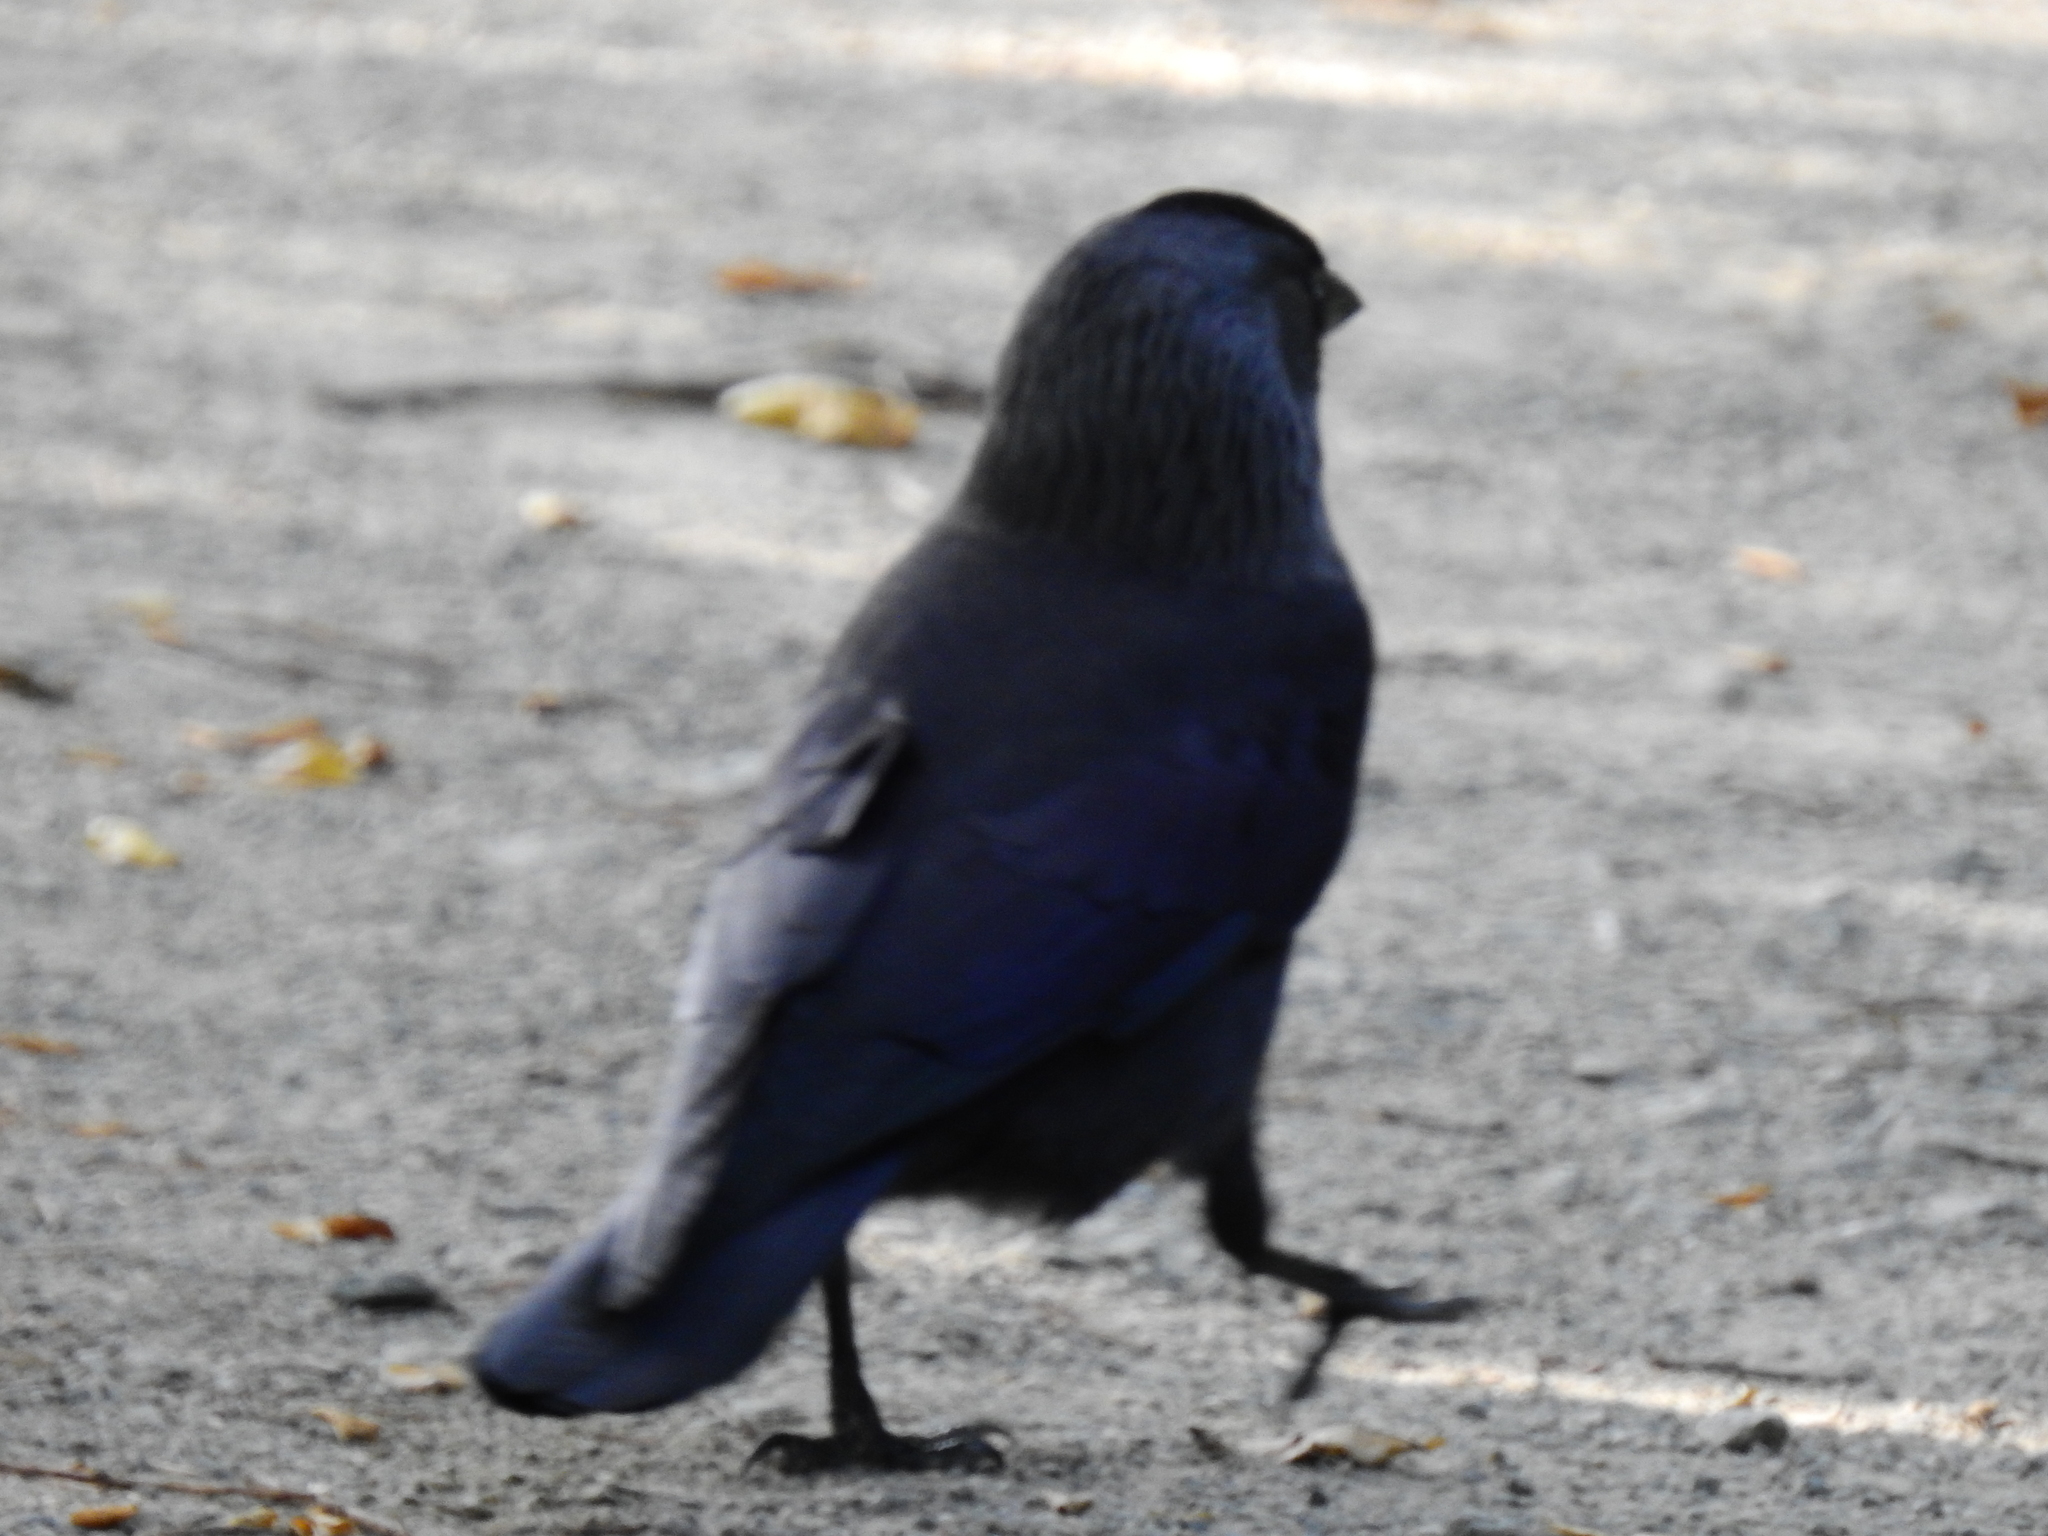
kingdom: Animalia
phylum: Chordata
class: Aves
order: Passeriformes
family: Corvidae
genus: Coloeus
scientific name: Coloeus monedula
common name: Western jackdaw
